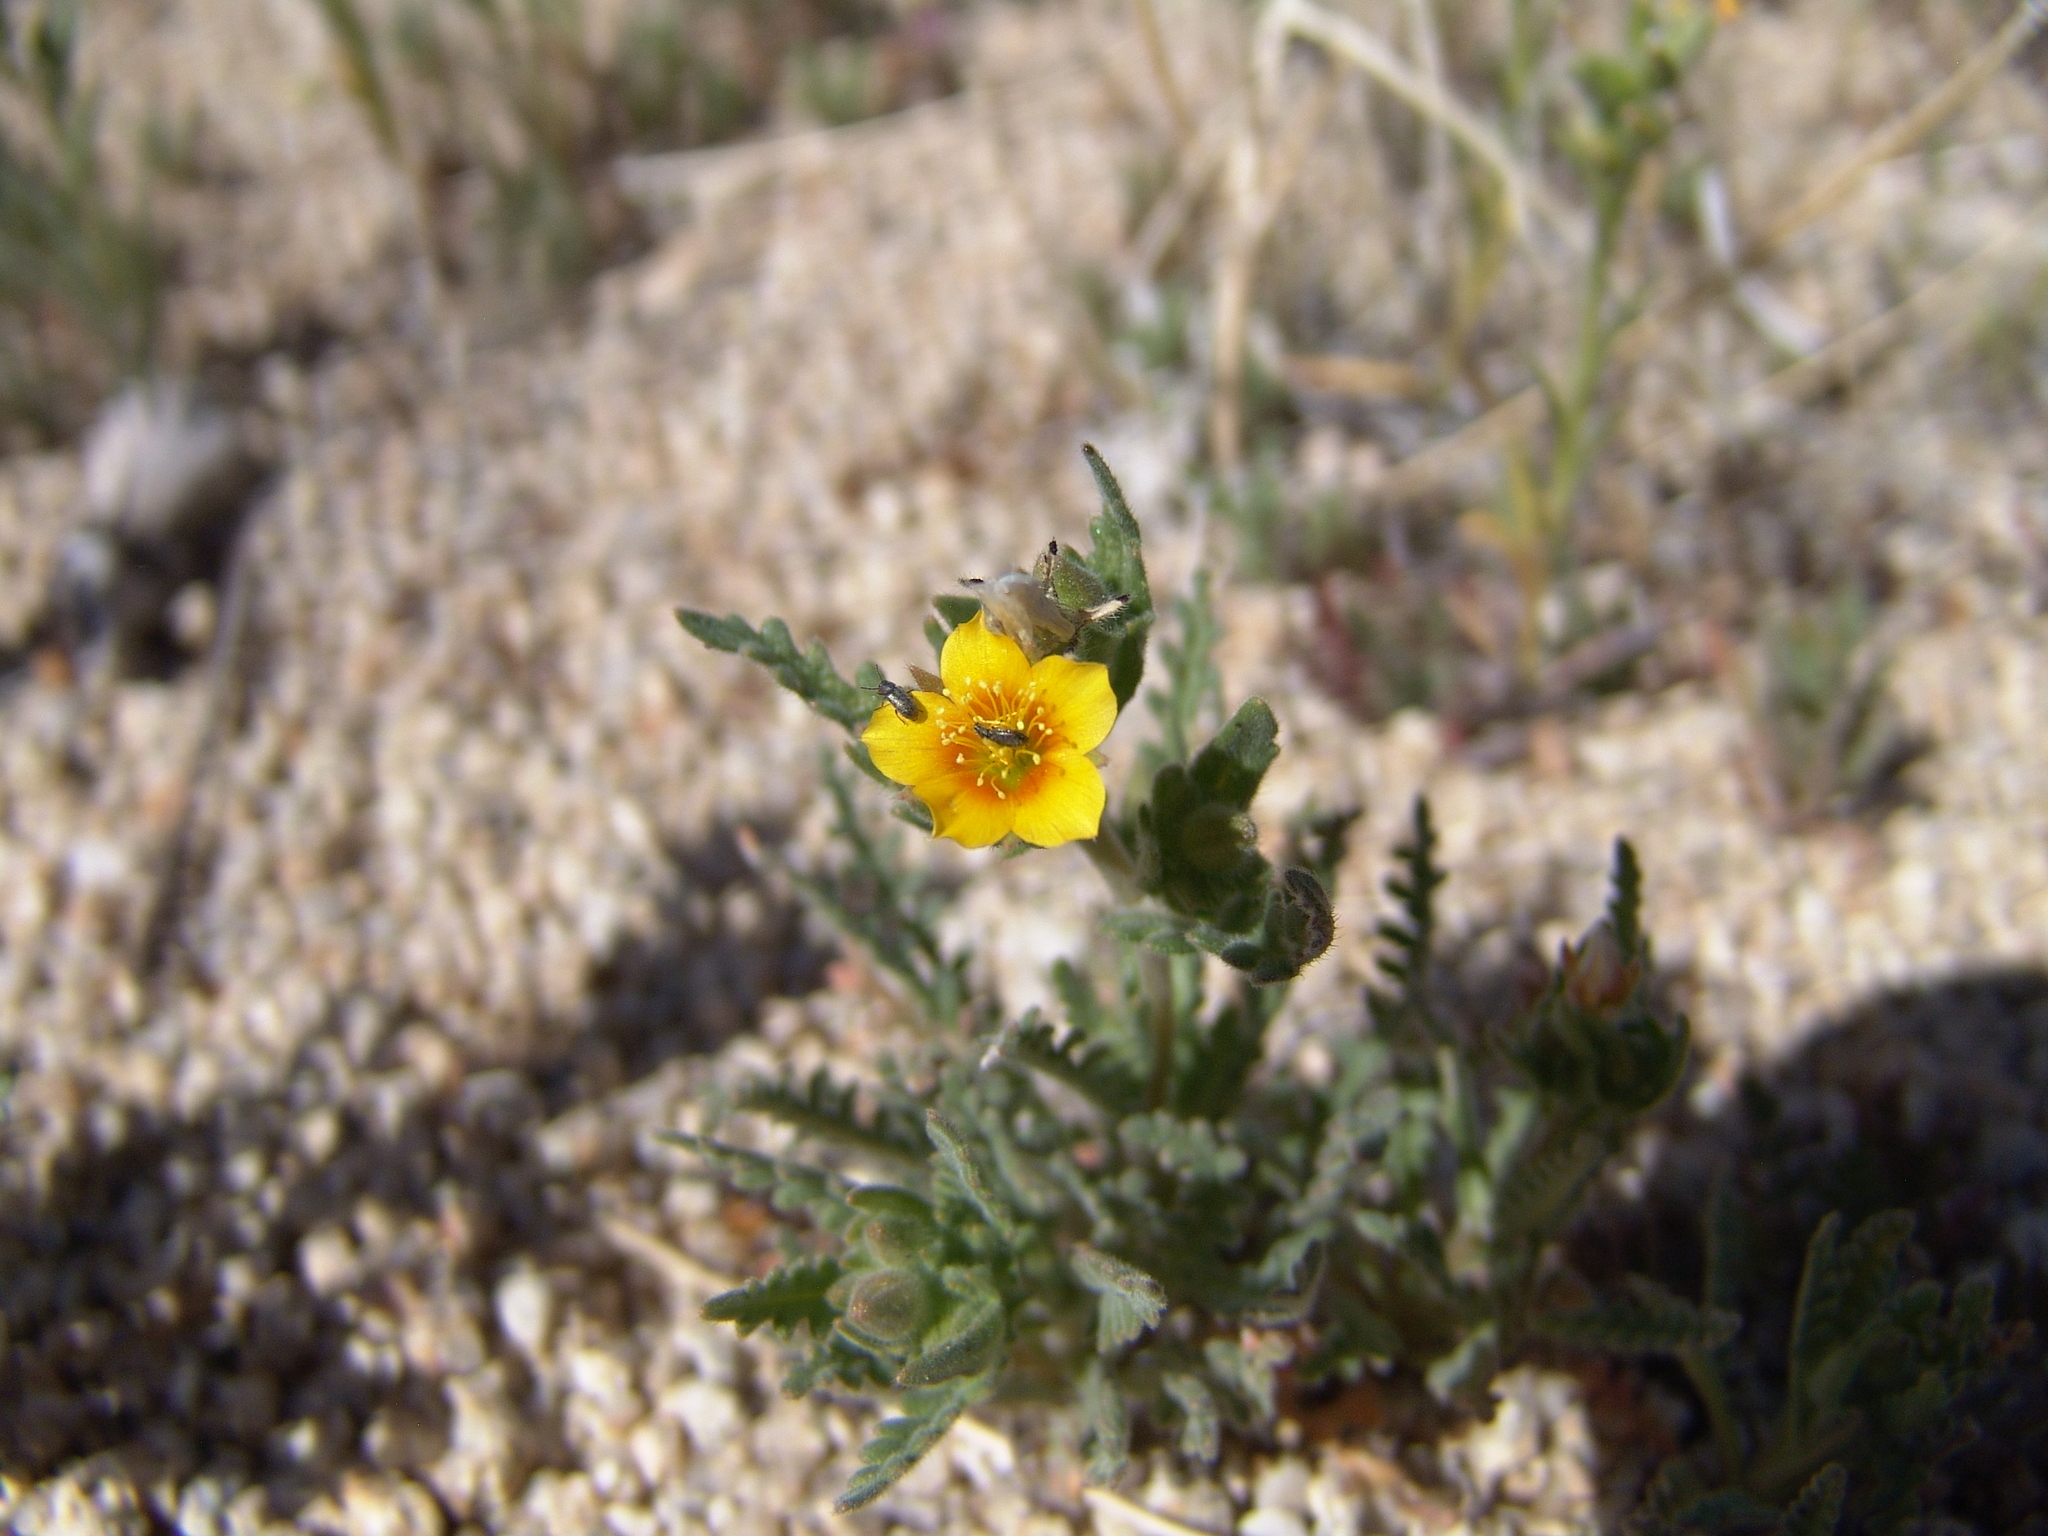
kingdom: Plantae
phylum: Tracheophyta
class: Magnoliopsida
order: Cornales
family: Loasaceae
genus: Mentzelia
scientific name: Mentzelia veatchiana
